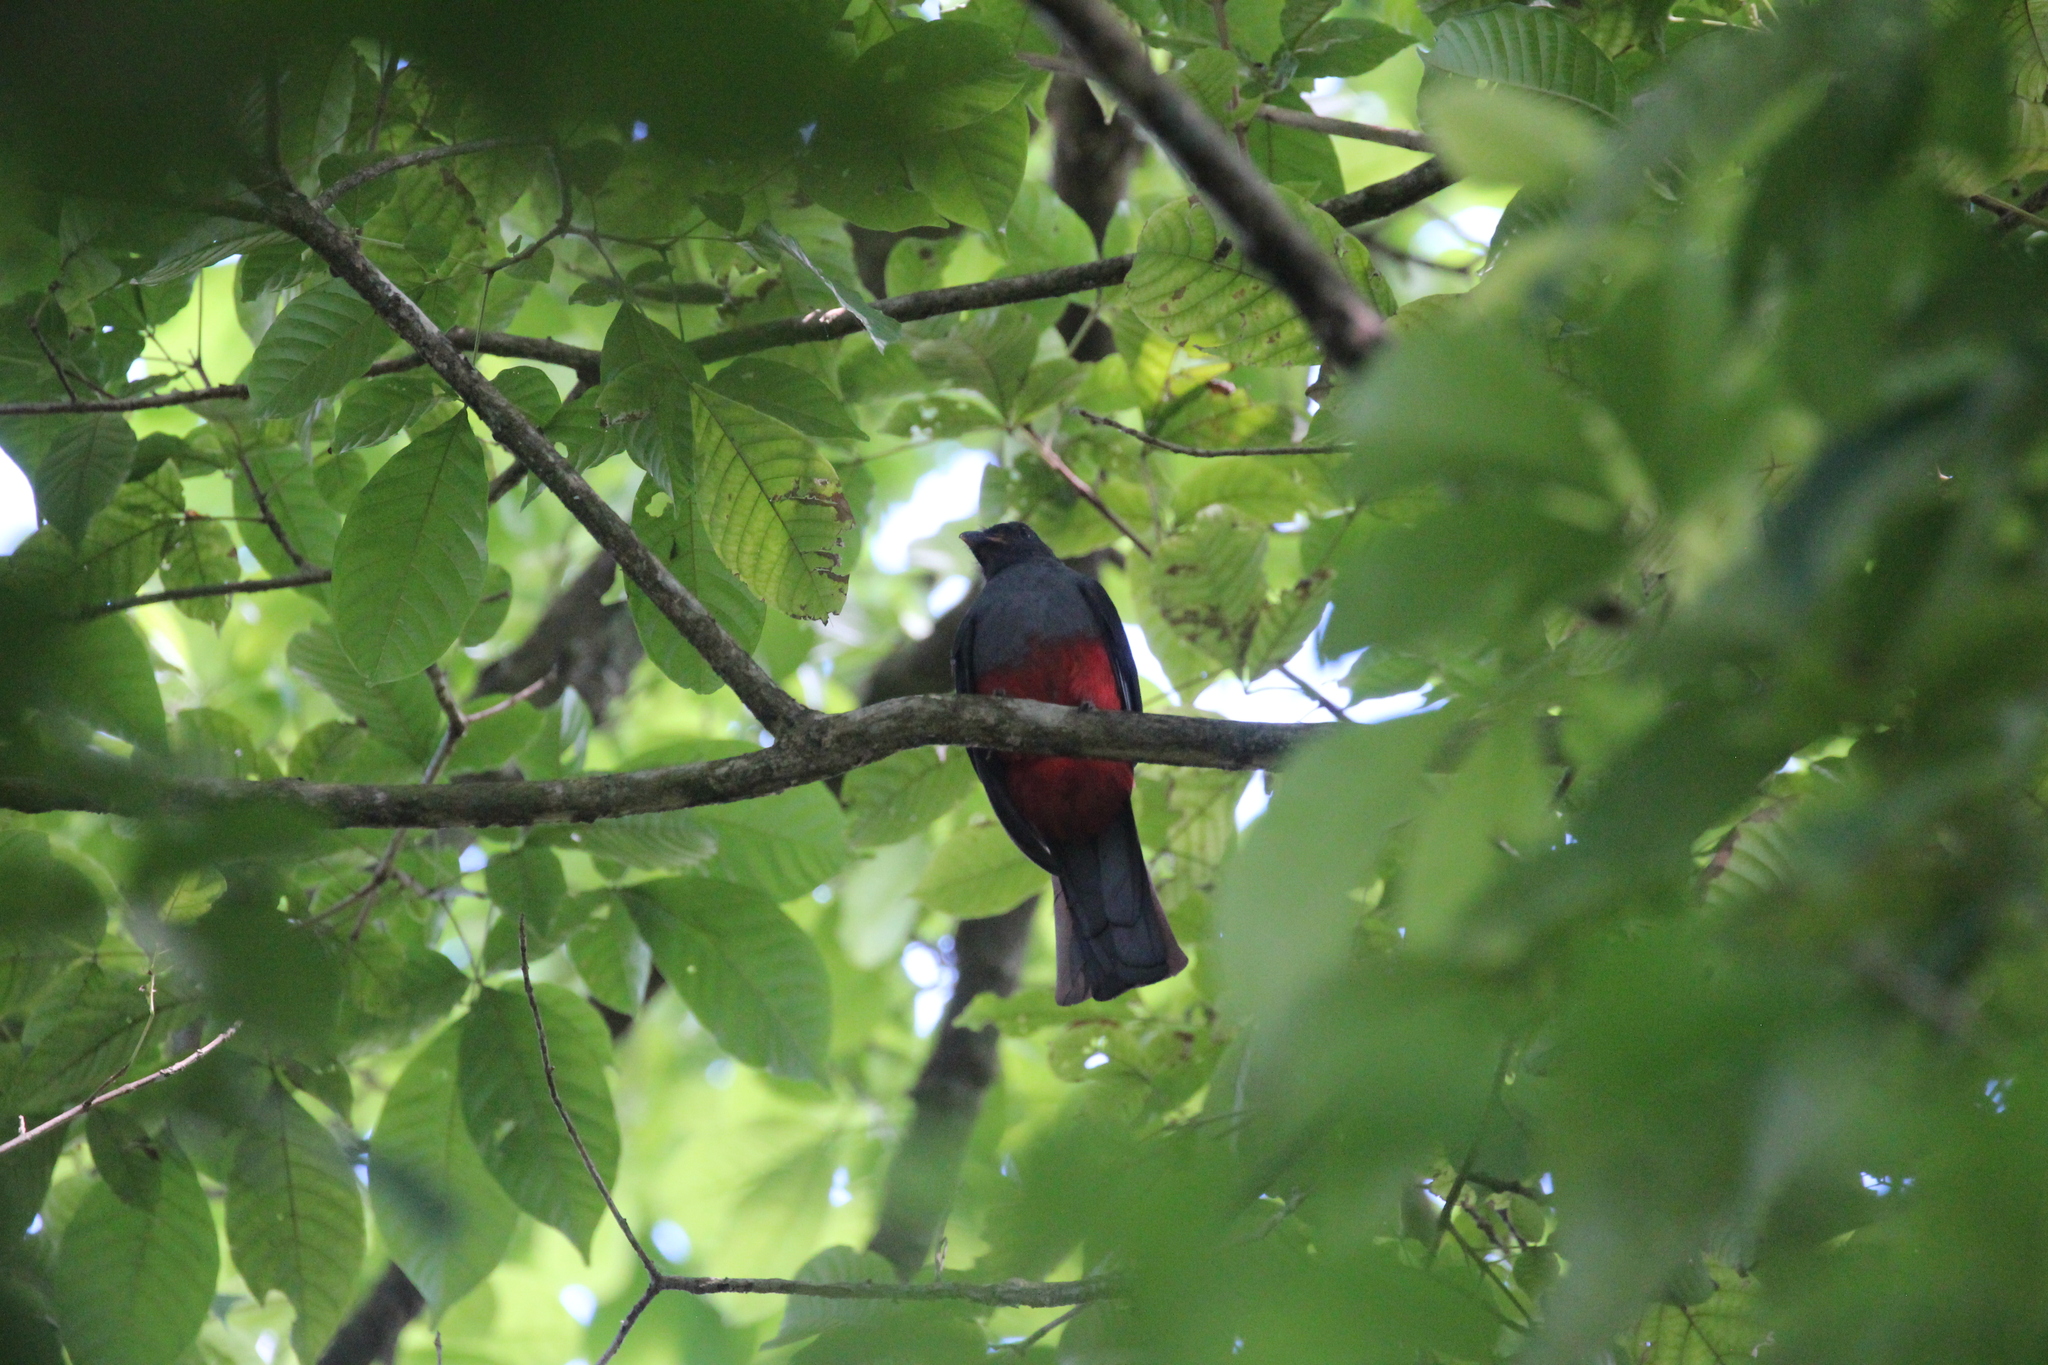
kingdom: Animalia
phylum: Chordata
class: Aves
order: Trogoniformes
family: Trogonidae
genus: Trogon
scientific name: Trogon massena
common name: Slaty-tailed trogon
